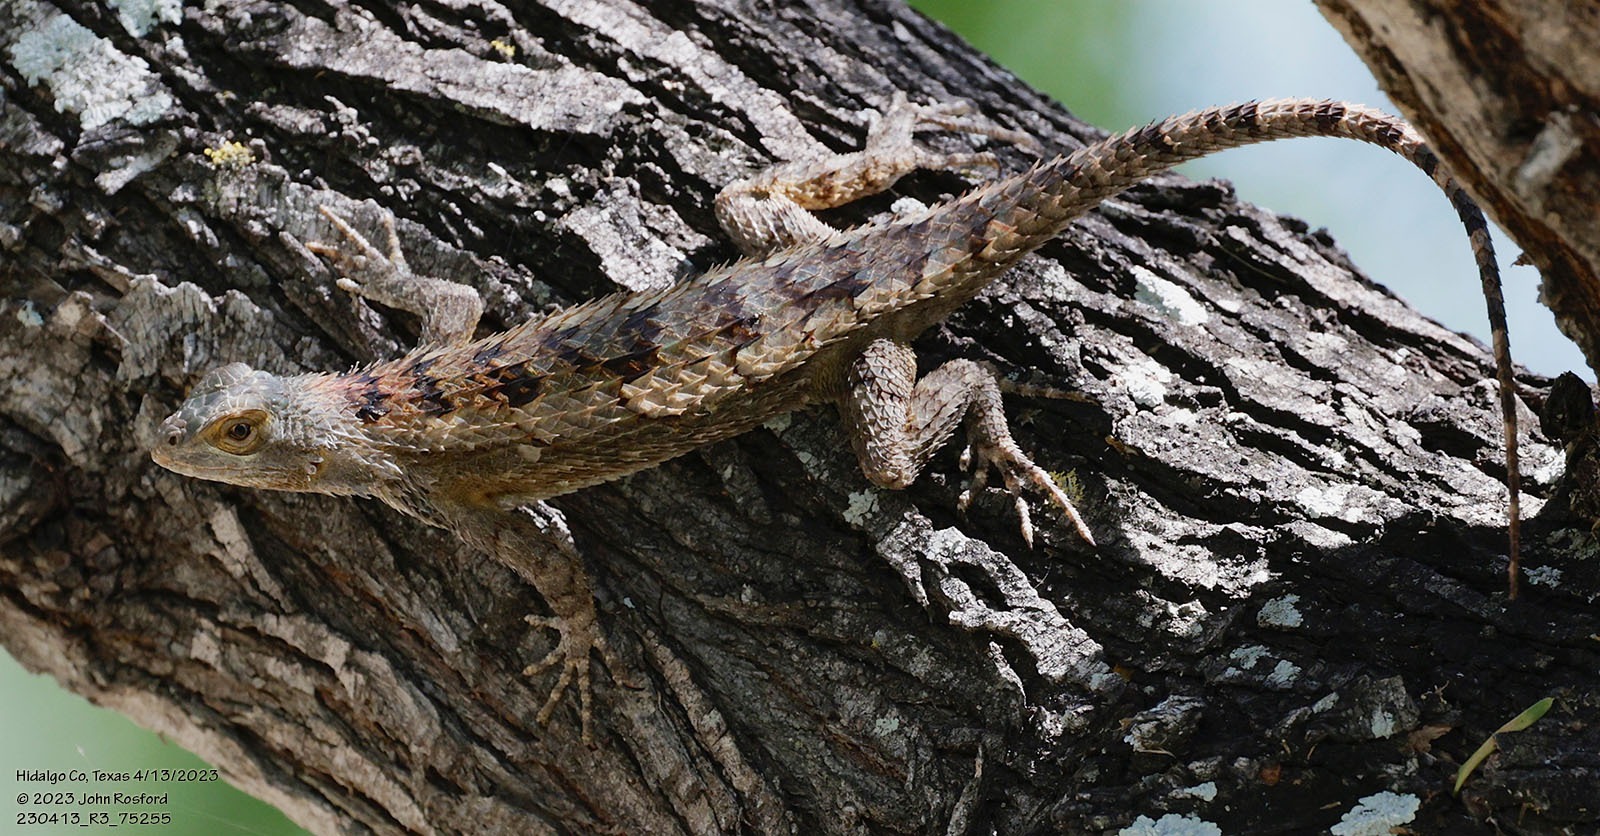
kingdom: Animalia
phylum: Chordata
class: Squamata
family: Phrynosomatidae
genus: Sceloporus
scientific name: Sceloporus olivaceus
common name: Texas spiny lizard
